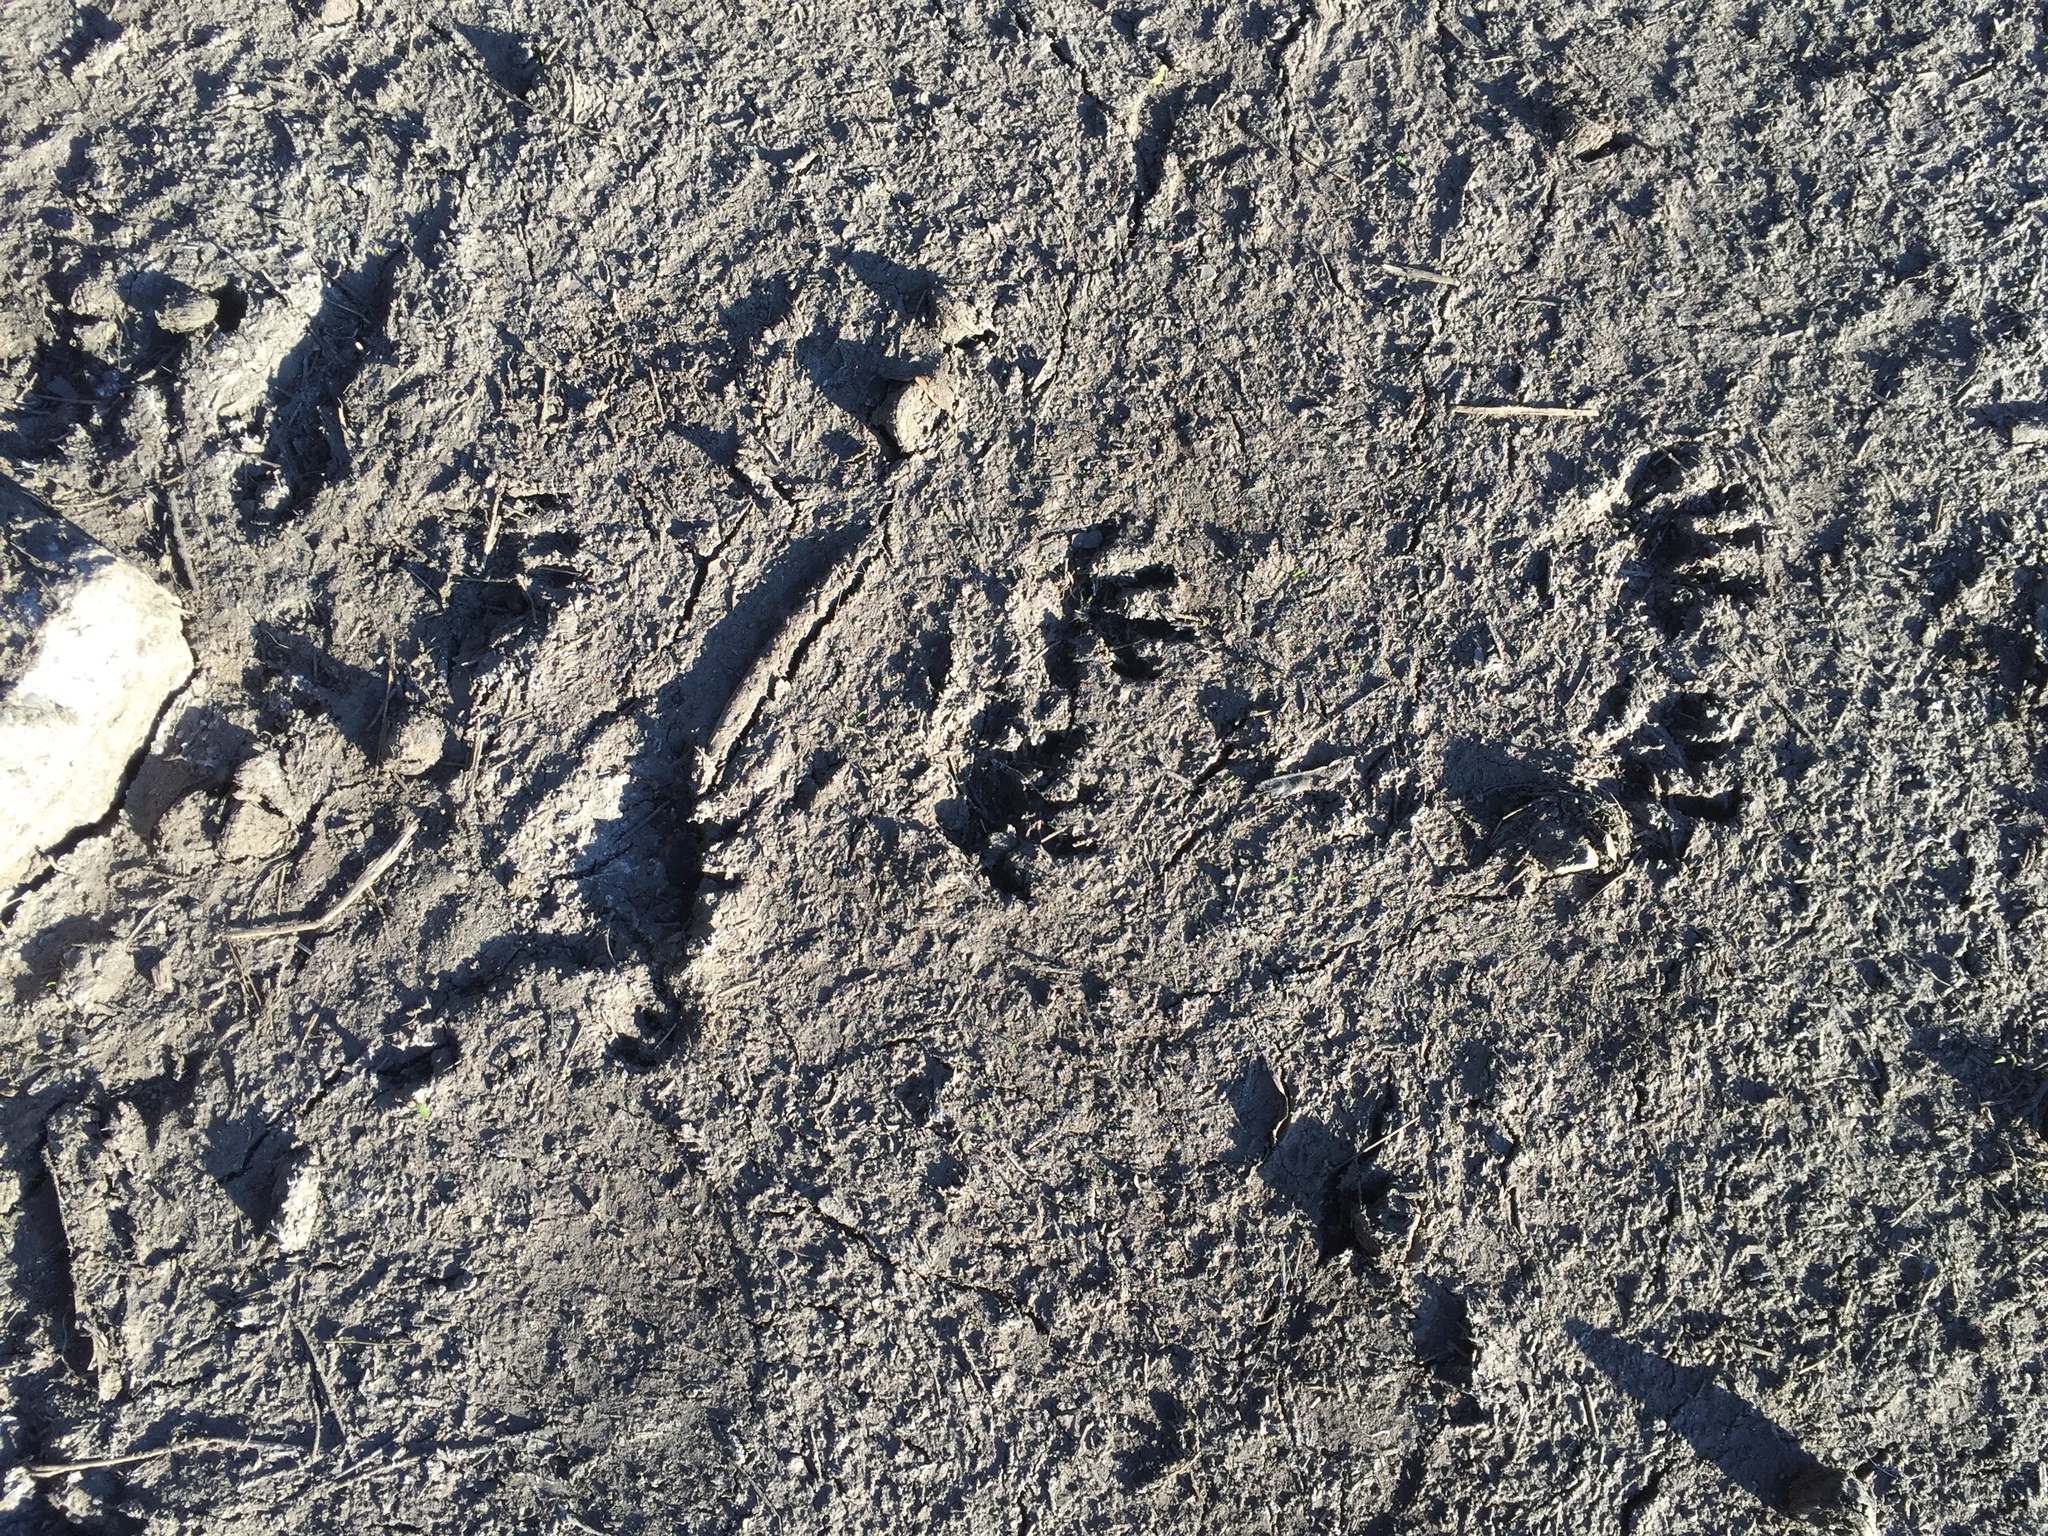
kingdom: Animalia
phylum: Chordata
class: Mammalia
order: Carnivora
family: Procyonidae
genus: Procyon
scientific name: Procyon lotor
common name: Raccoon
